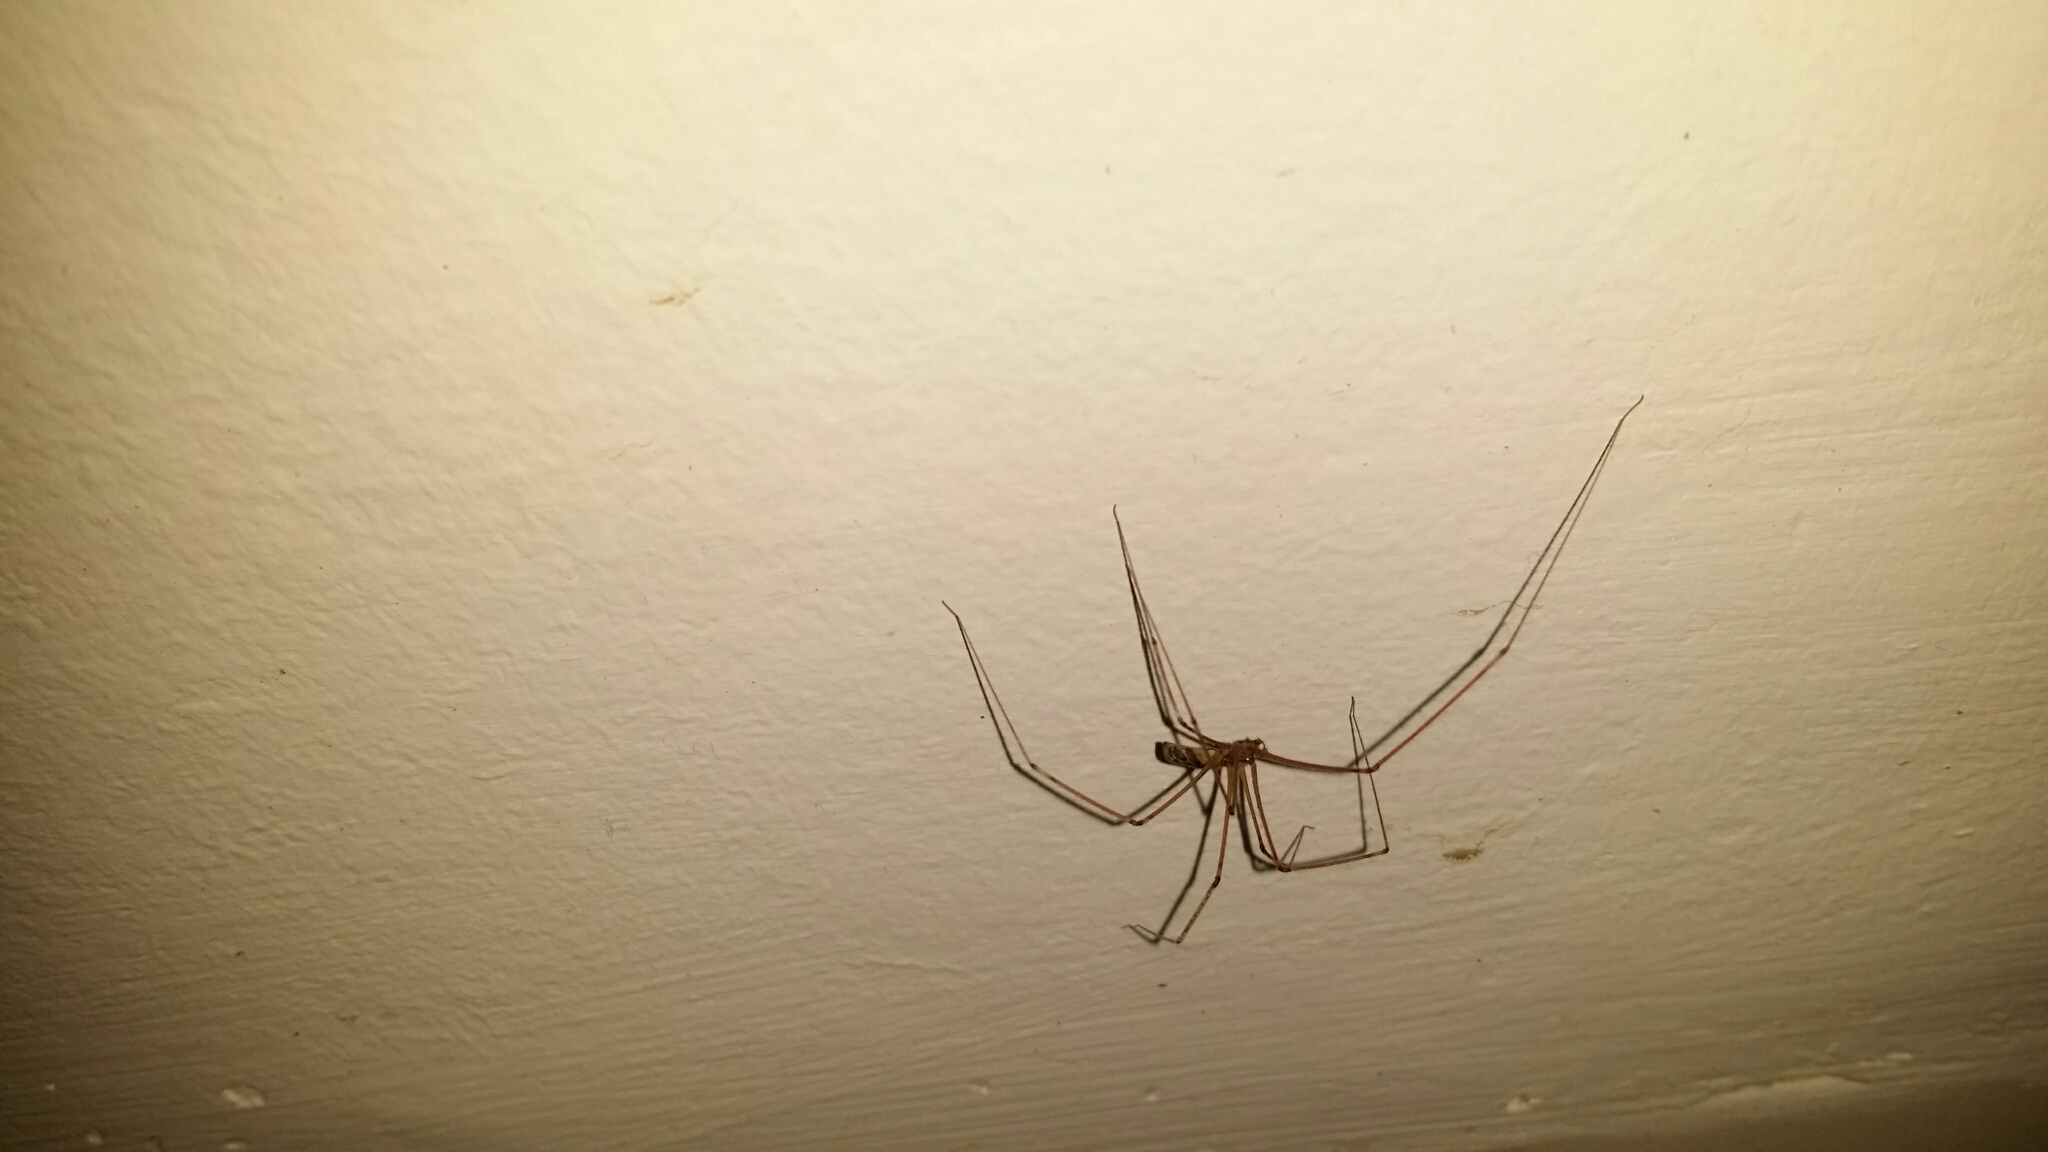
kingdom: Animalia
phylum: Arthropoda
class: Arachnida
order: Araneae
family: Pholcidae
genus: Pholcus
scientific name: Pholcus phalangioides
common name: Longbodied cellar spider
